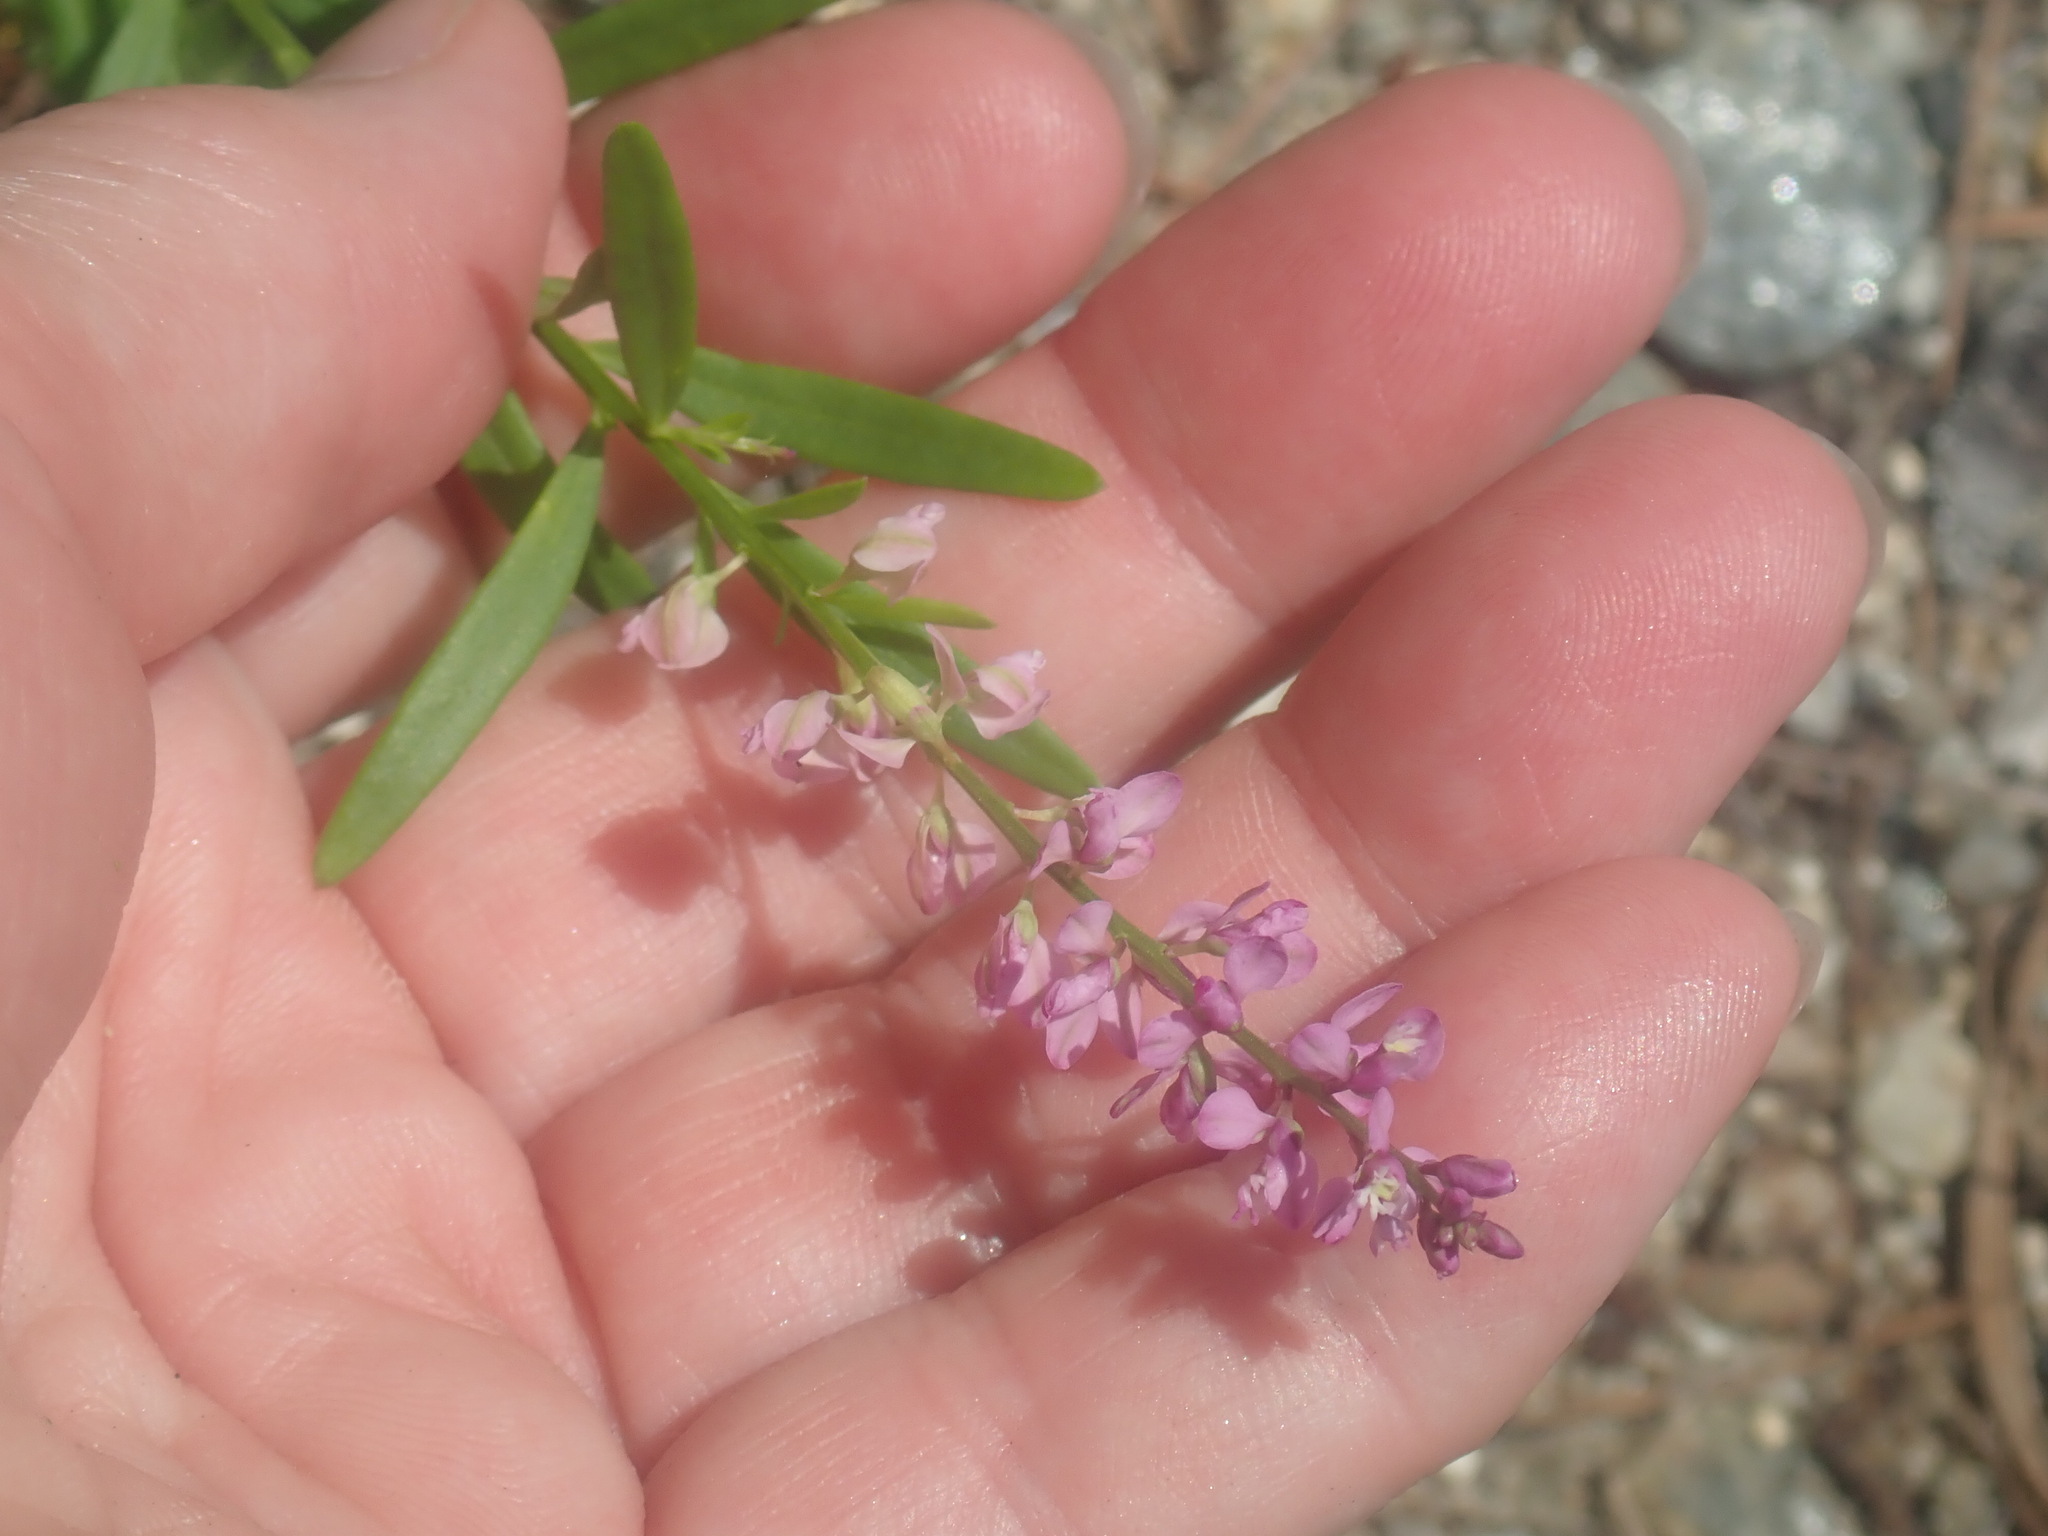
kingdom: Plantae
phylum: Tracheophyta
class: Magnoliopsida
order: Fabales
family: Polygalaceae
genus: Polygala
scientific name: Polygala polygama
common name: Bitter milkwort
